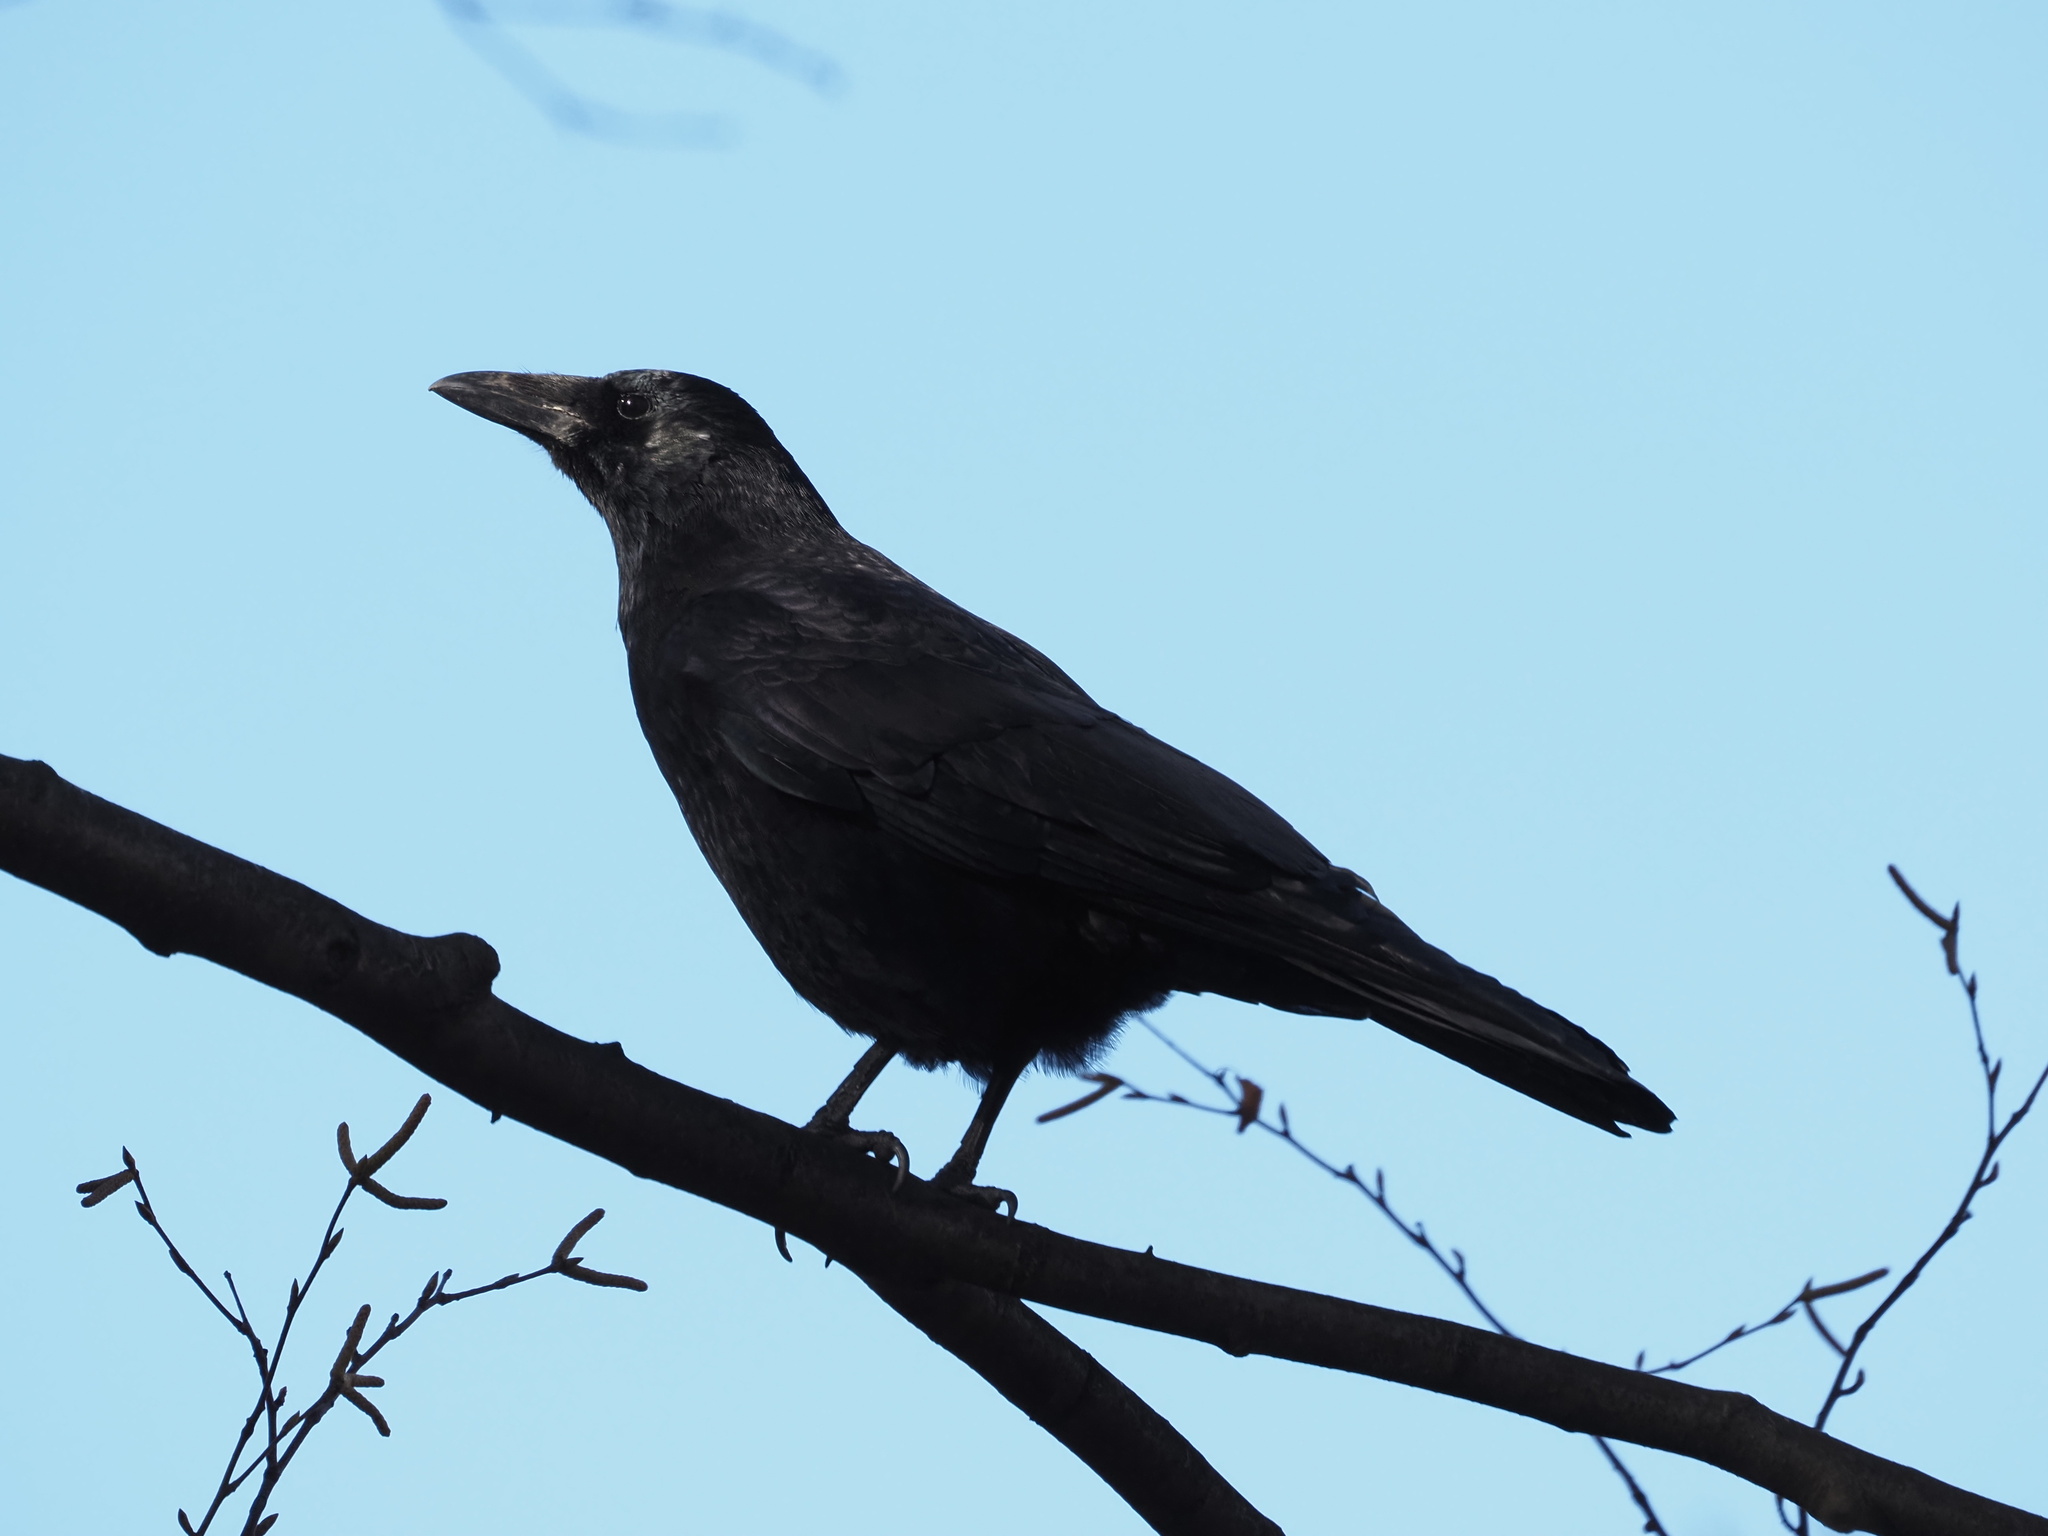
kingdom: Animalia
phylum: Chordata
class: Aves
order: Passeriformes
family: Corvidae
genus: Corvus
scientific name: Corvus corone
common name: Carrion crow
